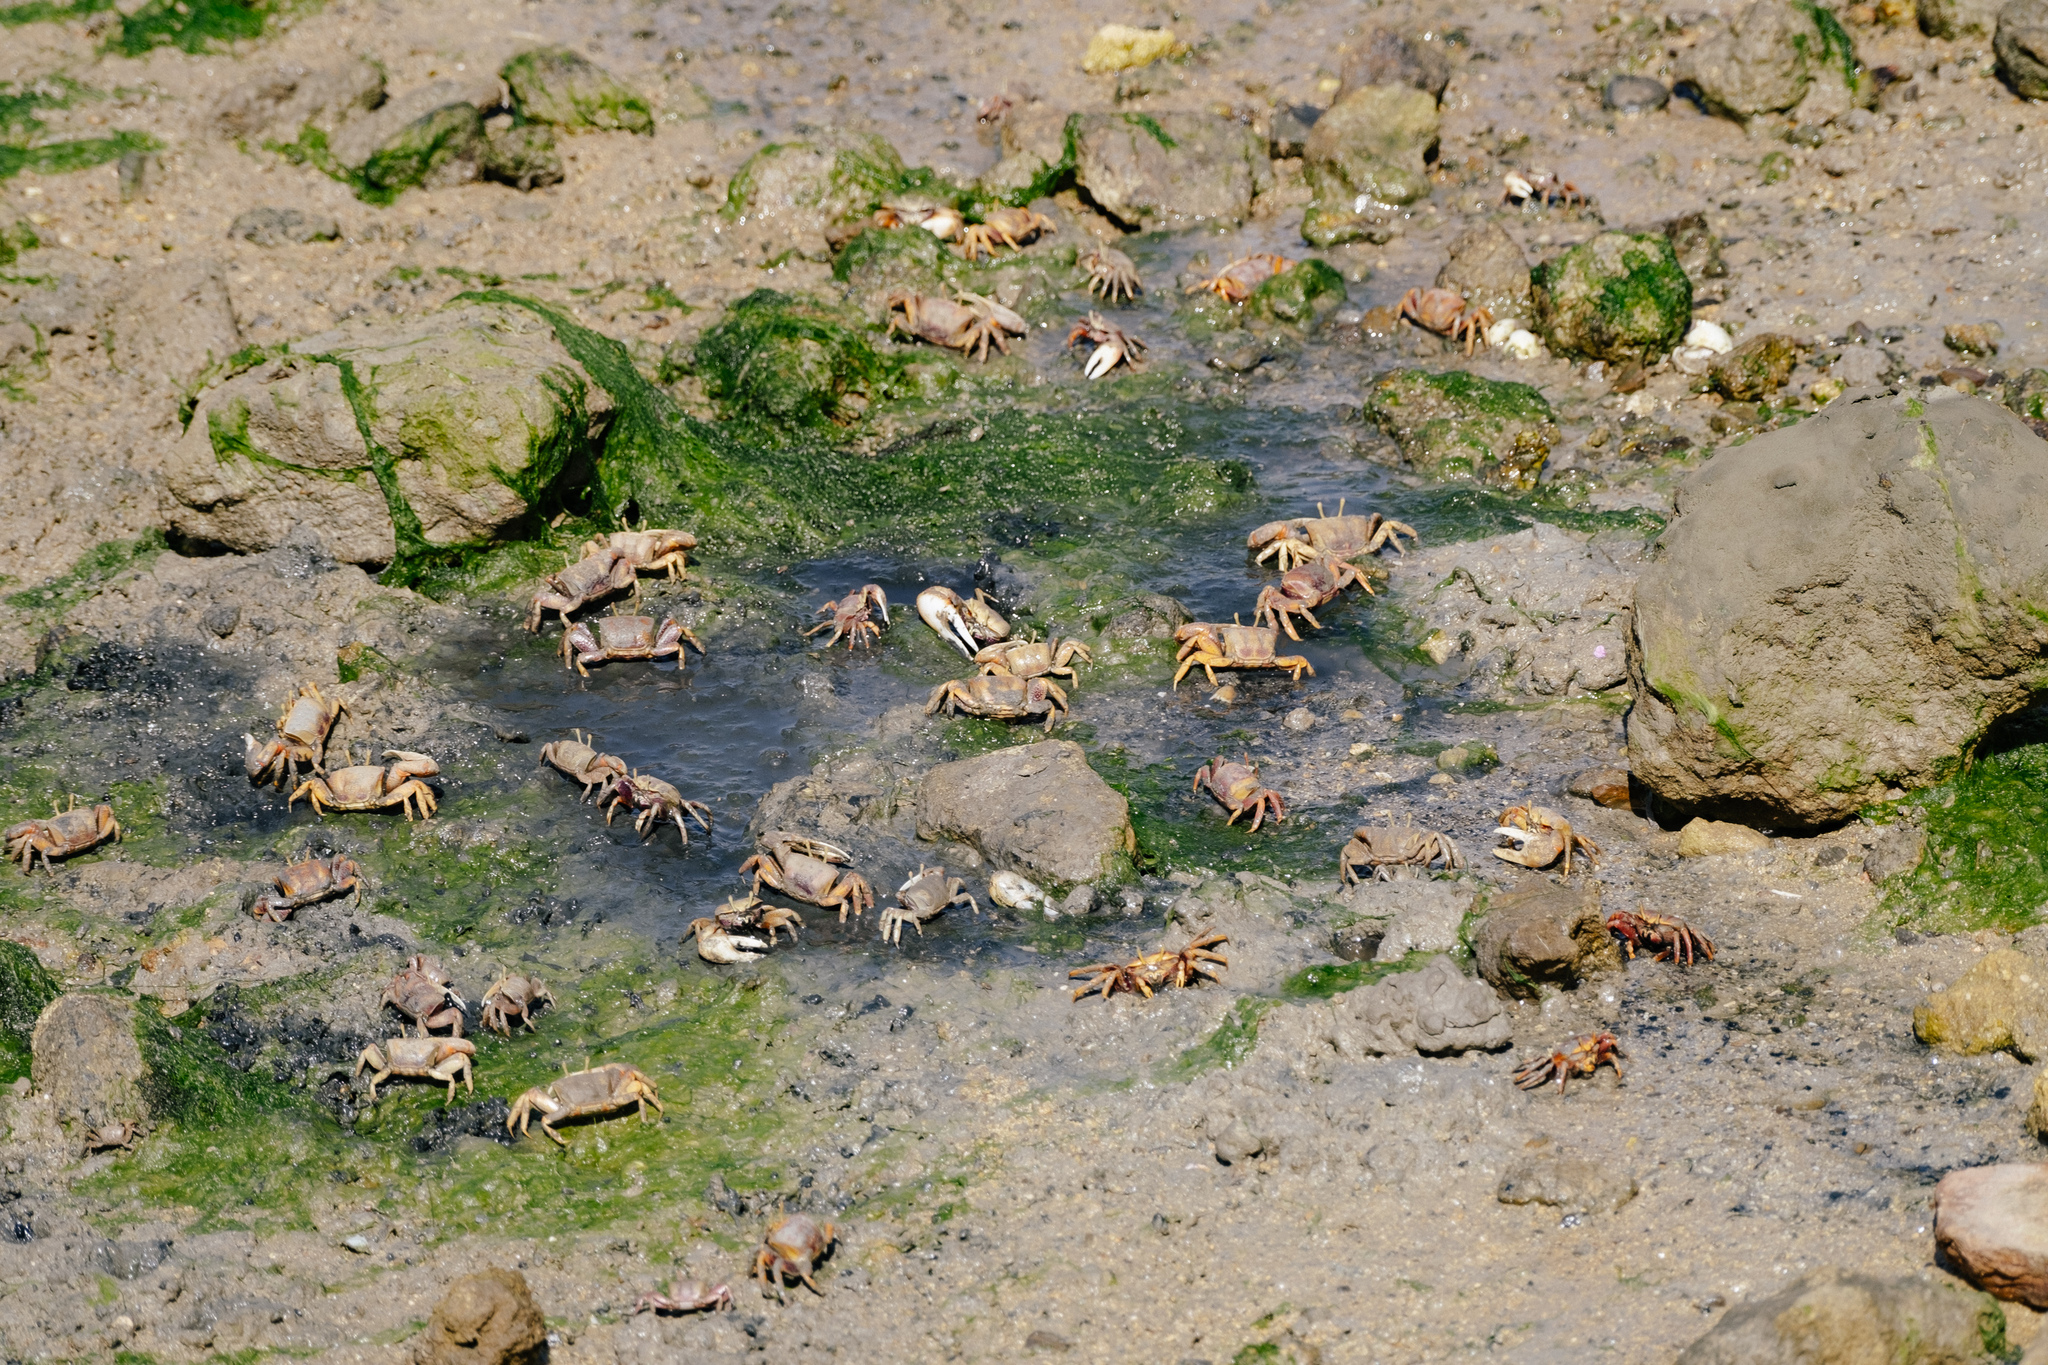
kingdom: Animalia
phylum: Arthropoda
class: Malacostraca
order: Decapoda
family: Ocypodidae
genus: Afruca
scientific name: Afruca tangeri
